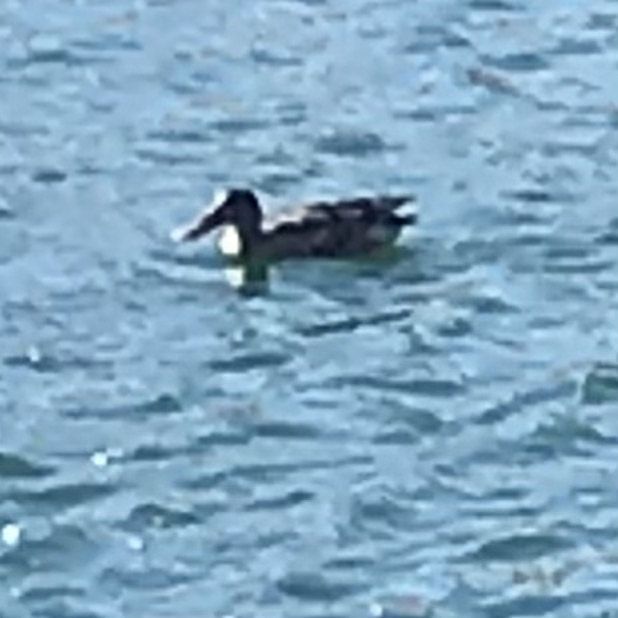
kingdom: Animalia
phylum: Chordata
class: Aves
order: Anseriformes
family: Anatidae
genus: Spatula
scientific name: Spatula clypeata
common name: Northern shoveler
